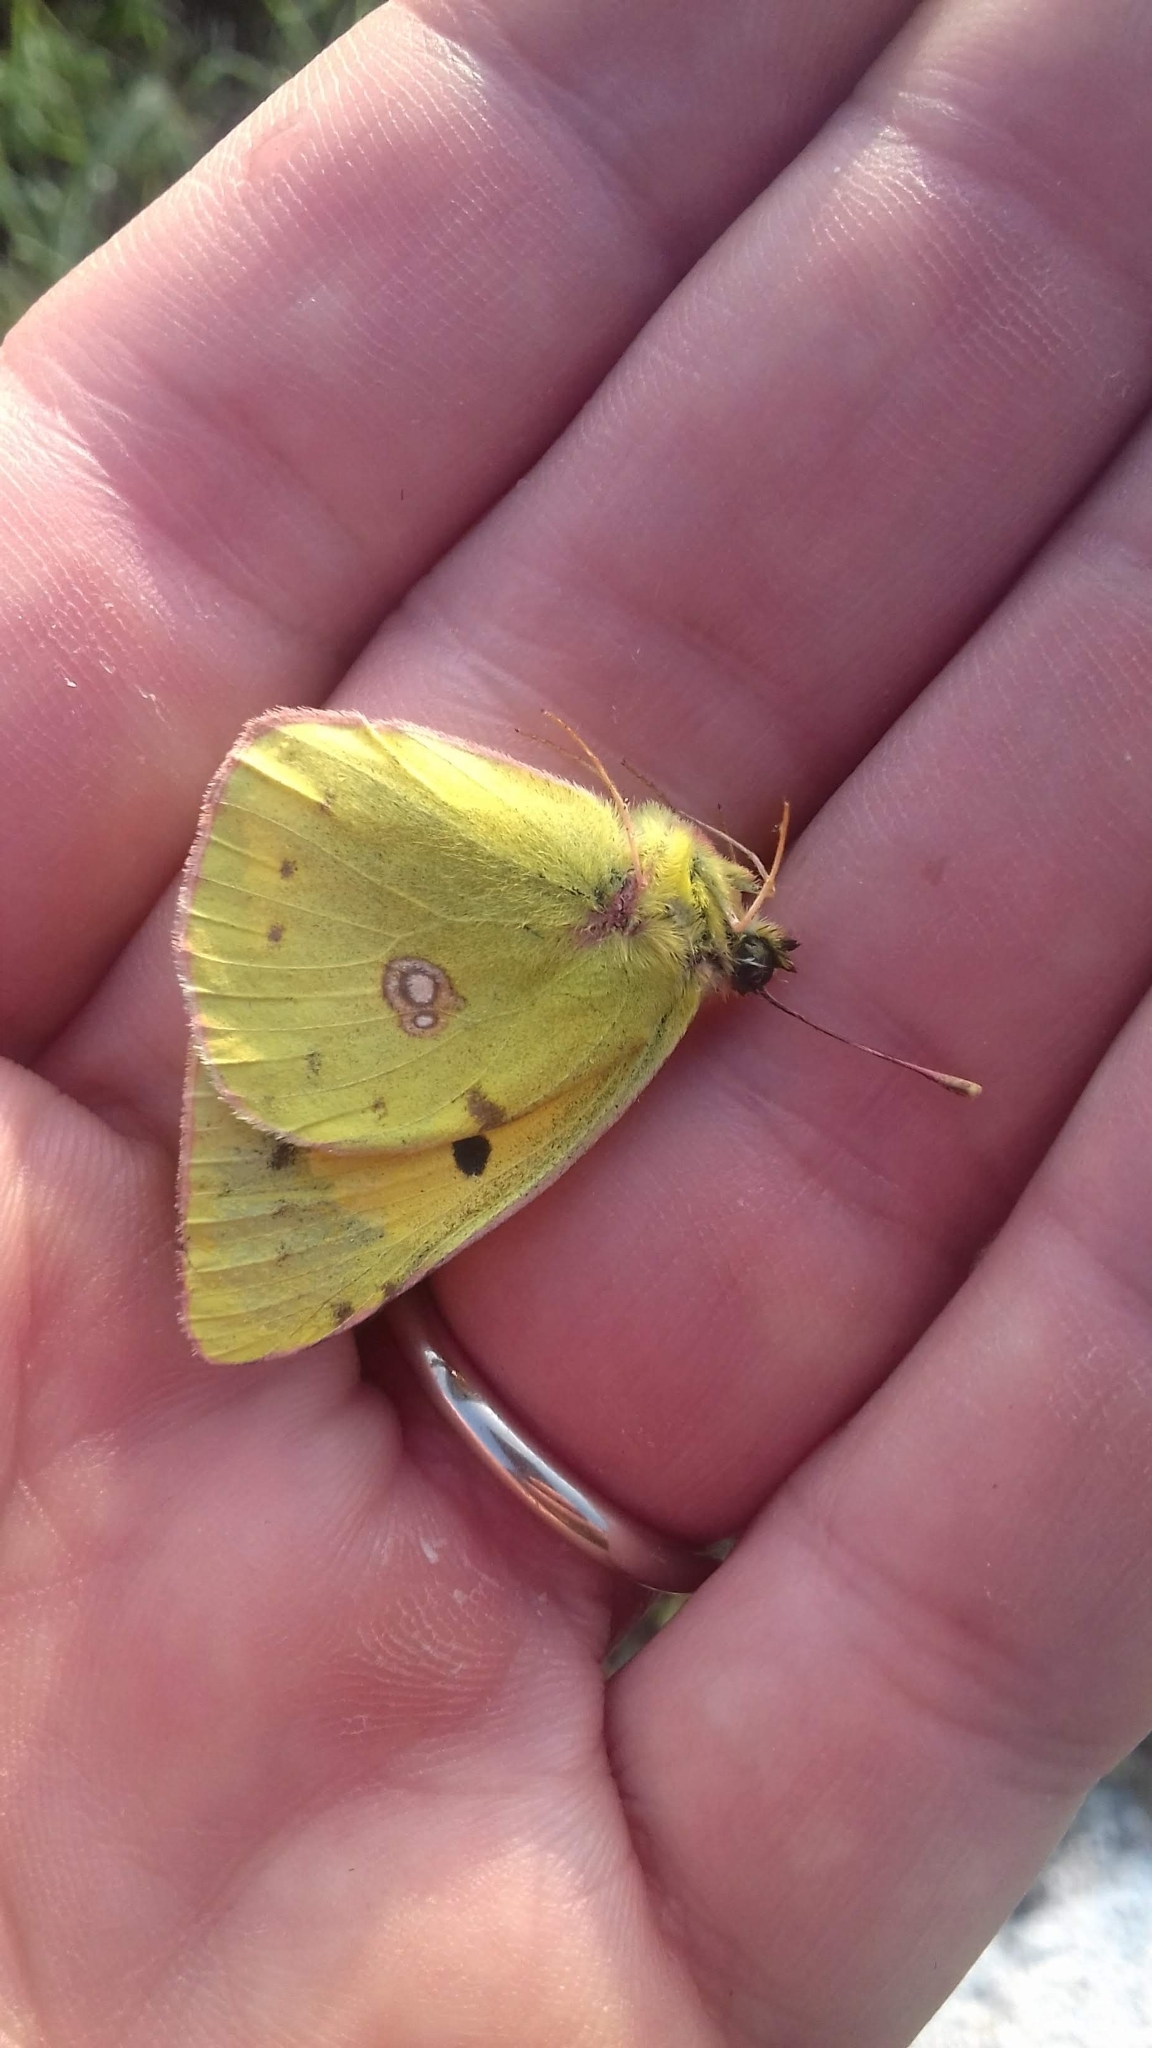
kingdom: Animalia
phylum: Arthropoda
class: Insecta
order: Lepidoptera
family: Pieridae
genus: Colias
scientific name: Colias croceus
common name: Clouded yellow
